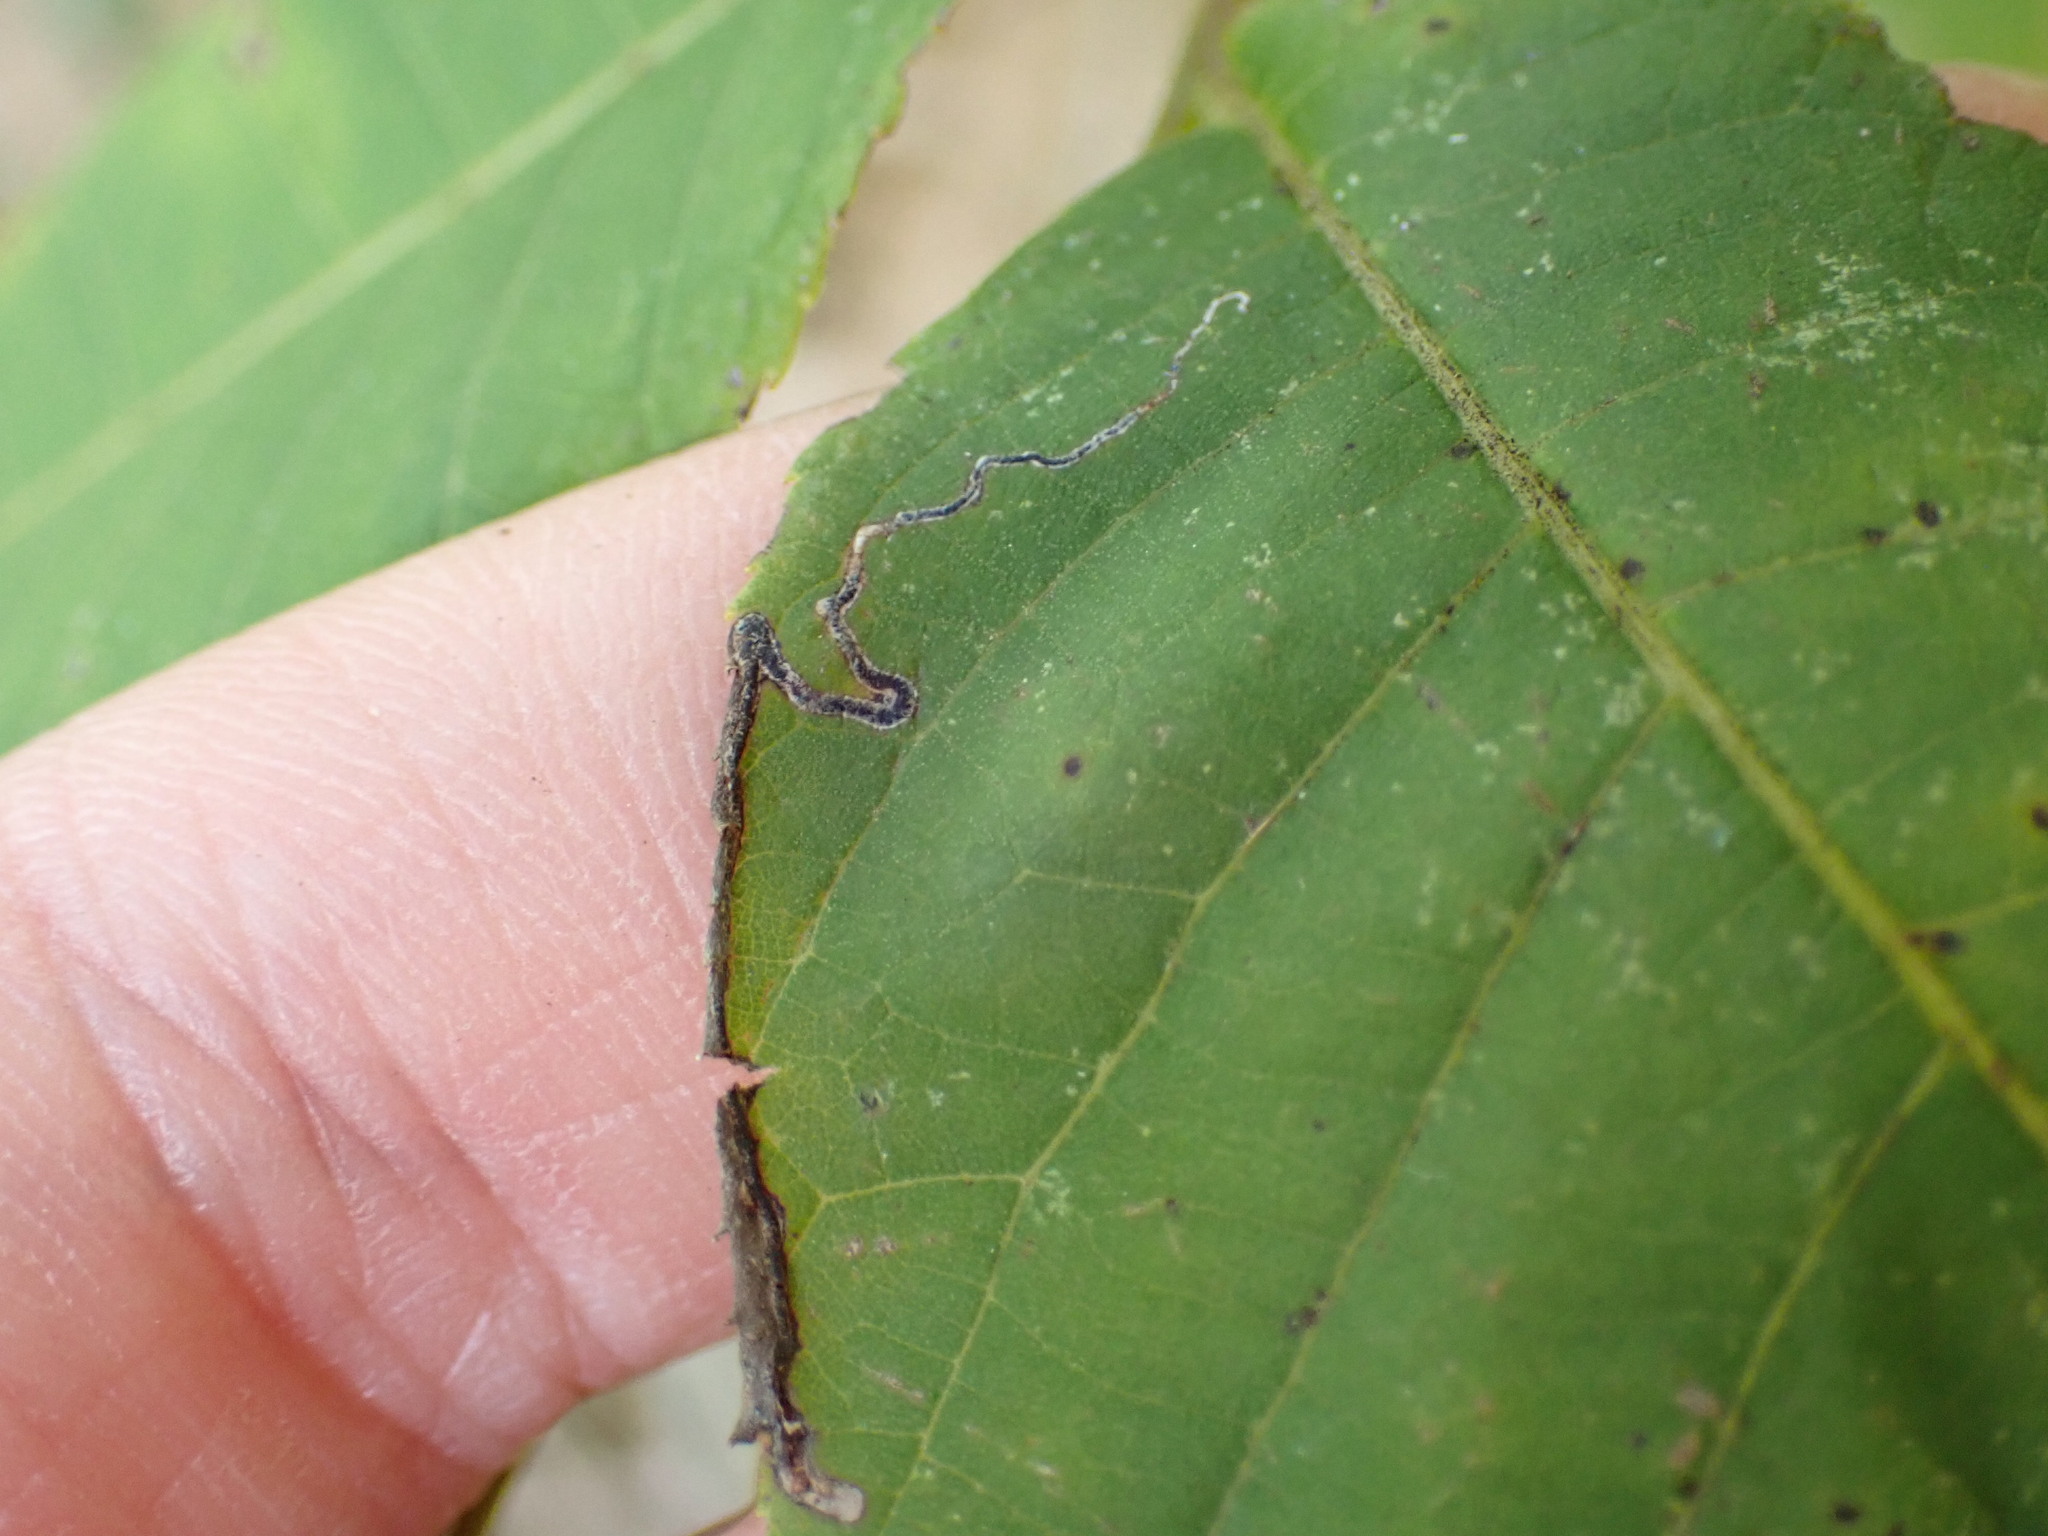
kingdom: Animalia
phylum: Arthropoda
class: Insecta
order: Lepidoptera
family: Nepticulidae
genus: Stigmella
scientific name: Stigmella juglandifoliella
